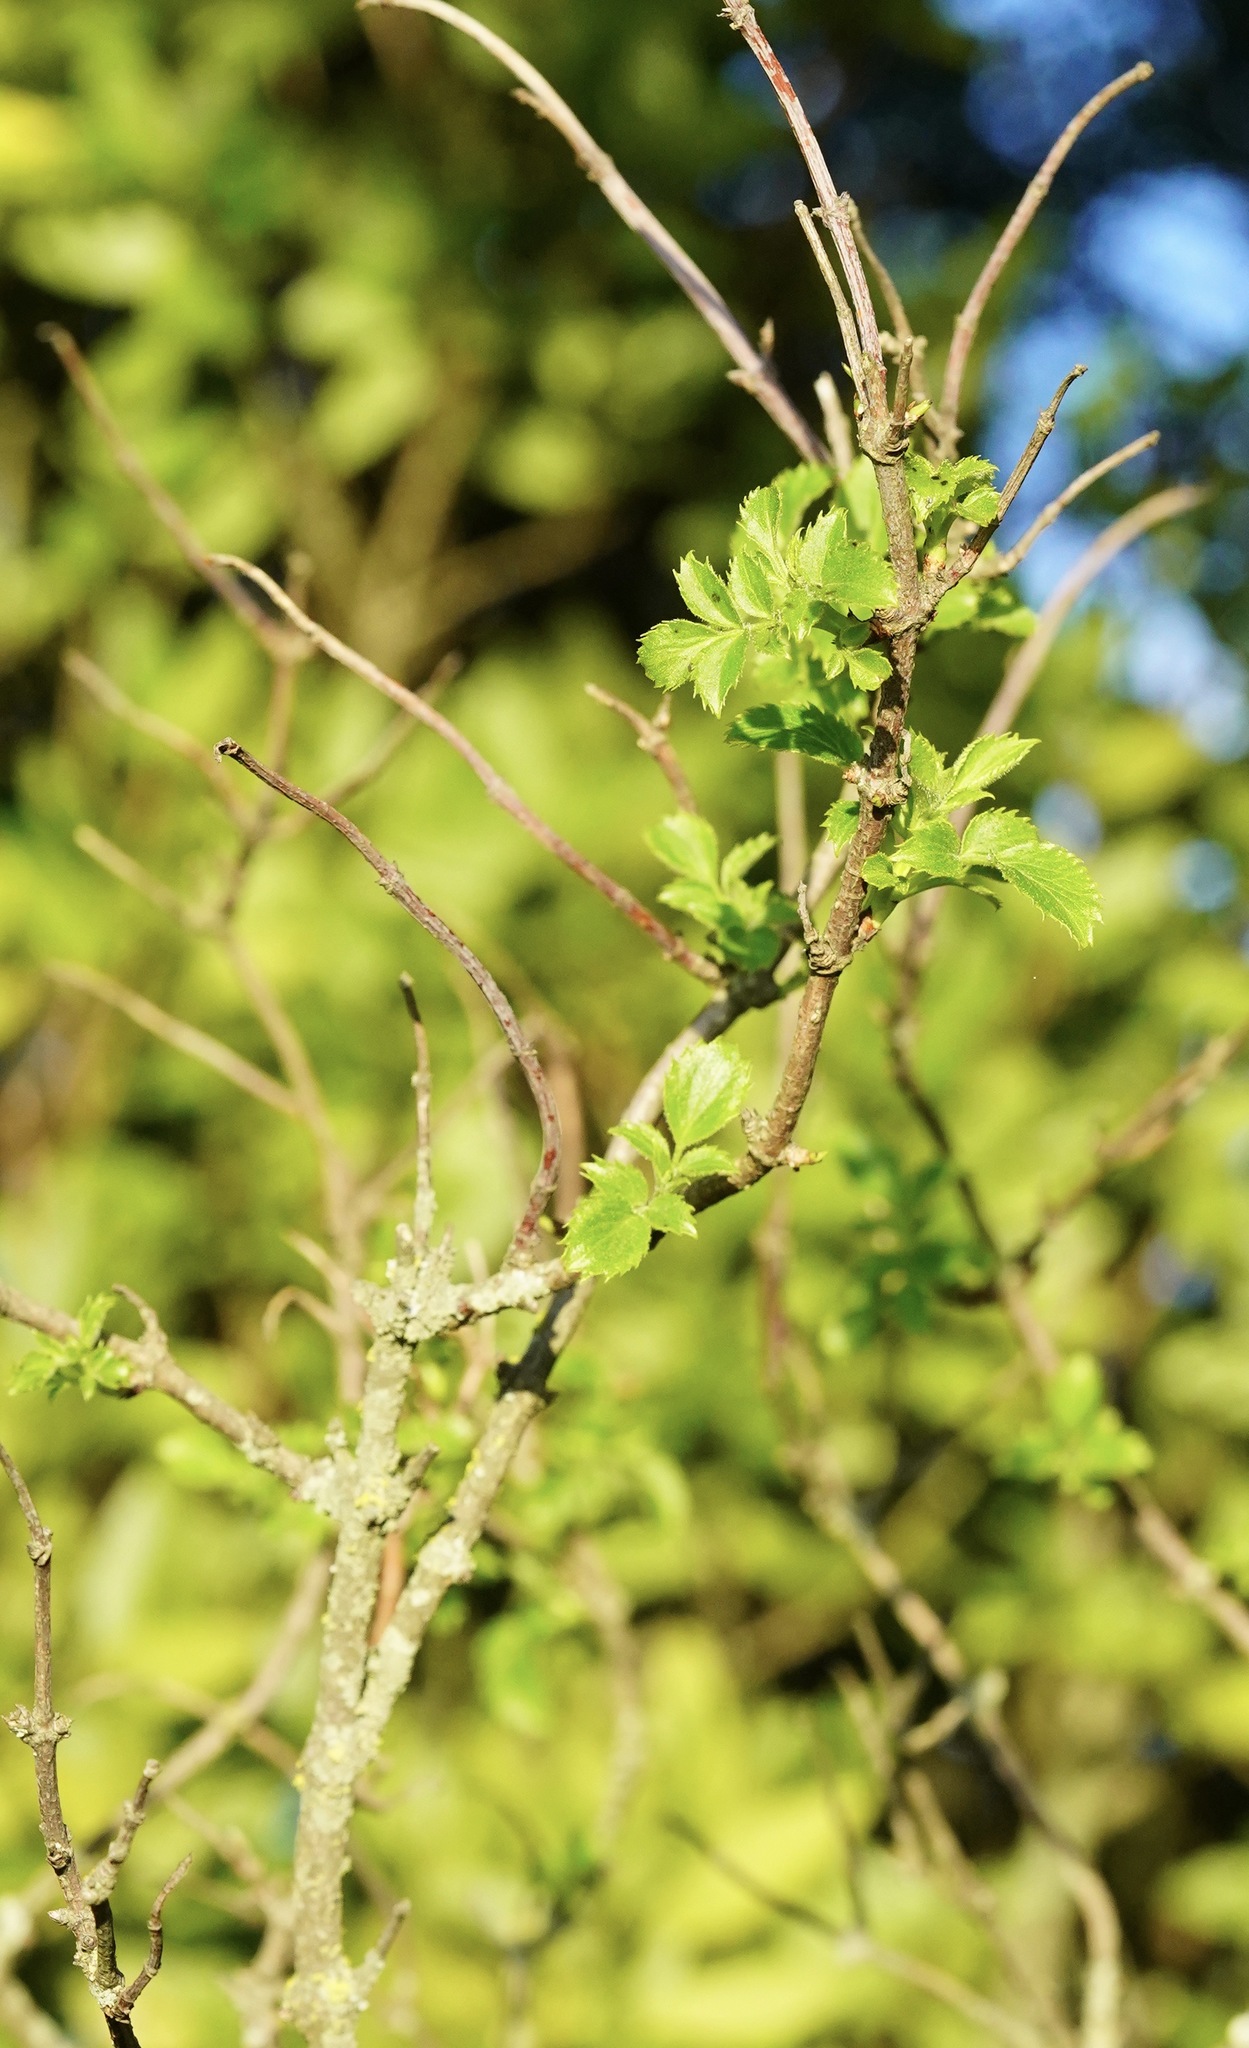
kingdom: Plantae
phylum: Tracheophyta
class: Magnoliopsida
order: Dipsacales
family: Viburnaceae
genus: Sambucus
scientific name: Sambucus cerulea
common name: Blue elder
